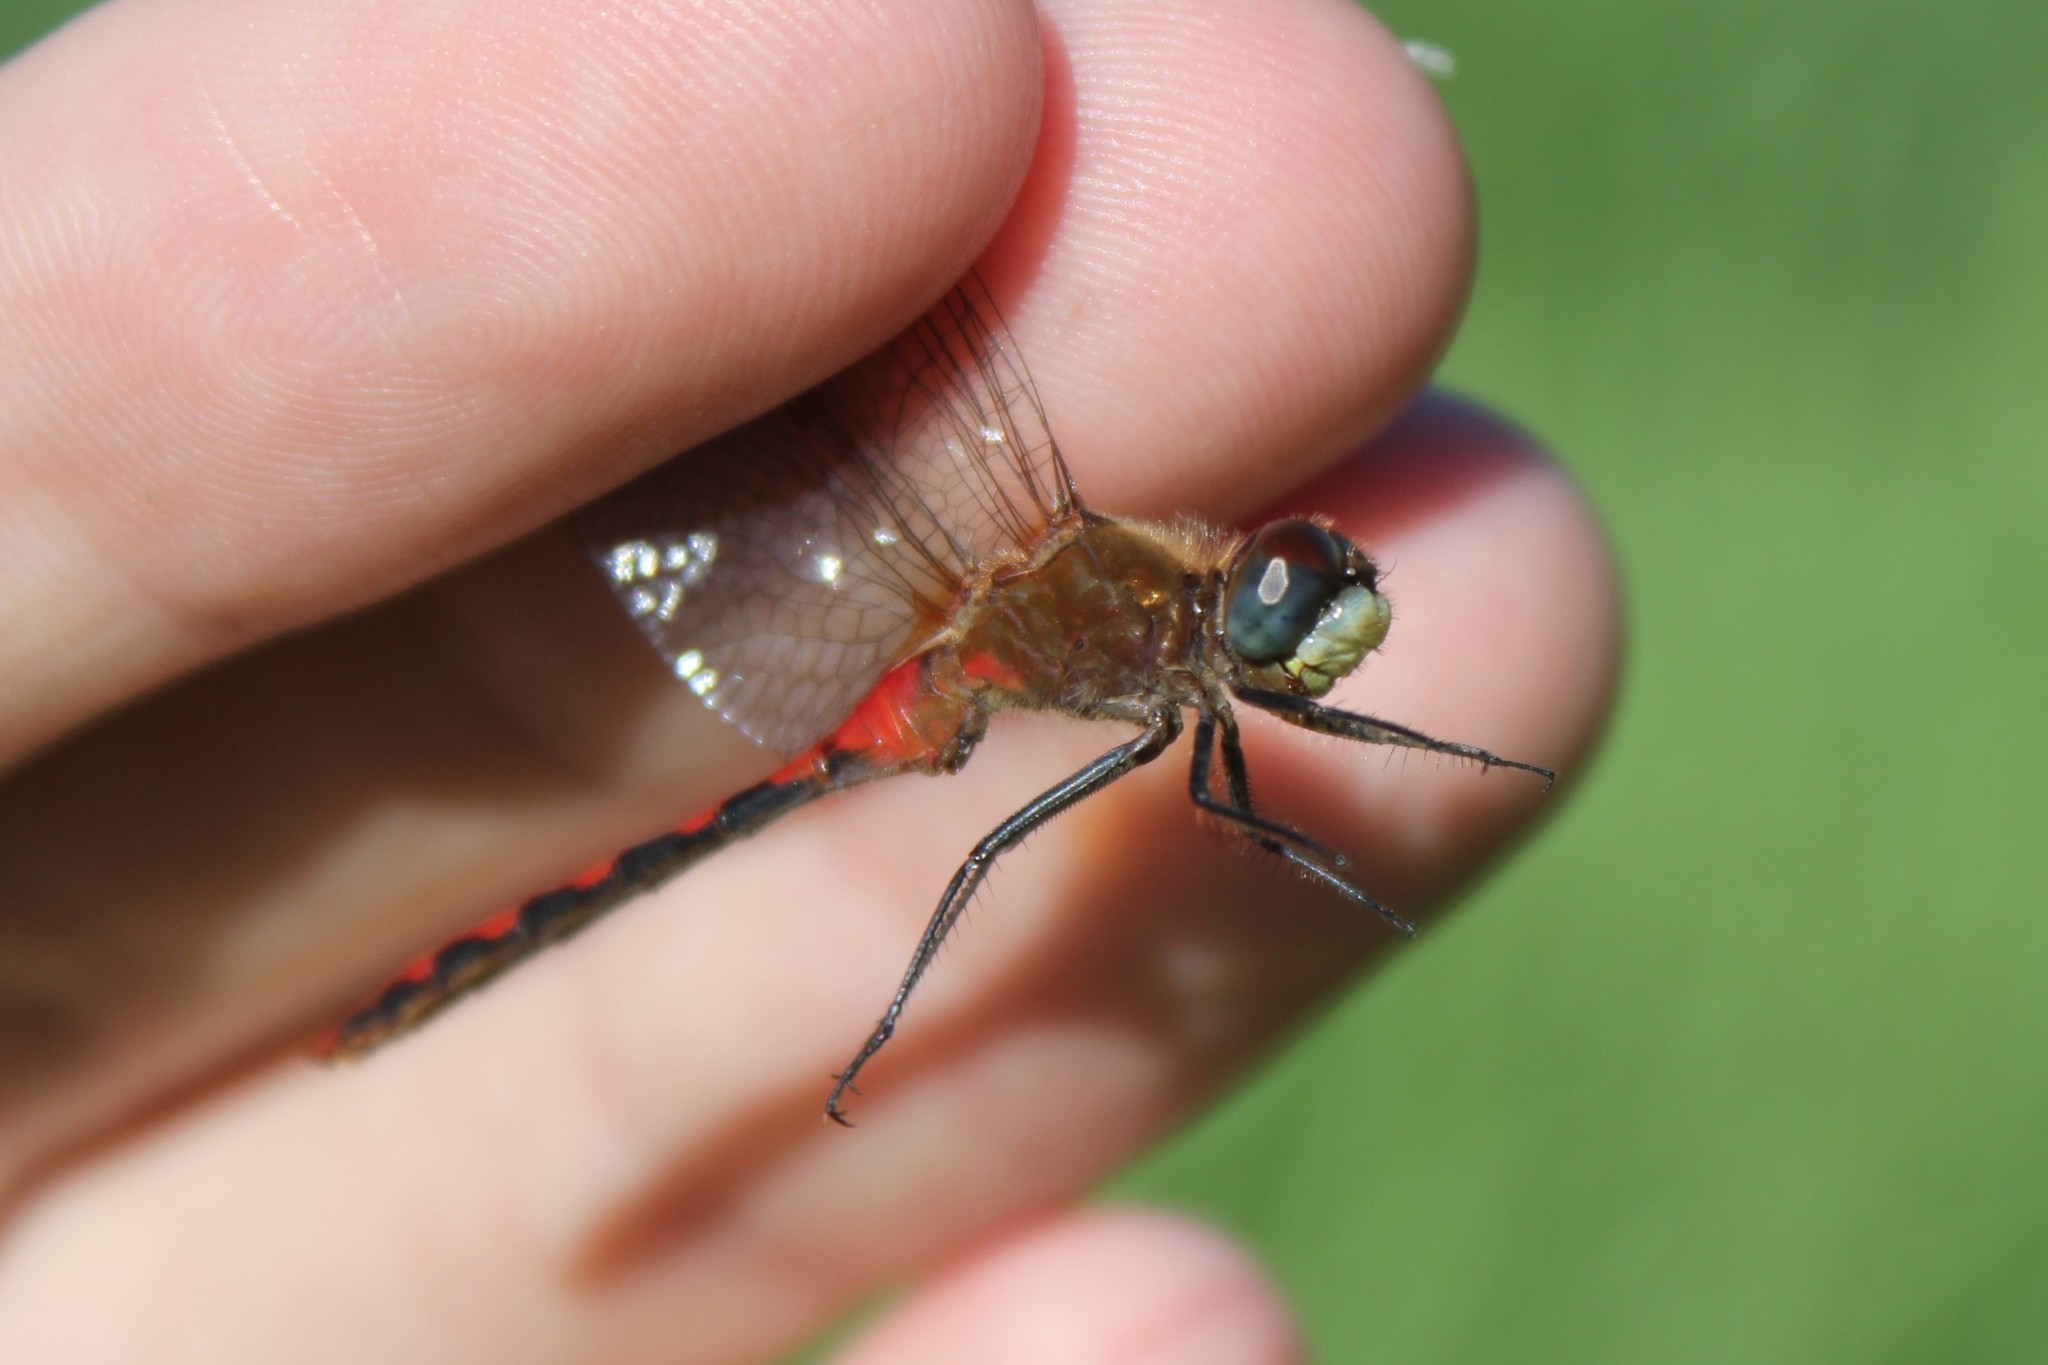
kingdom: Animalia
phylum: Arthropoda
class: Insecta
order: Odonata
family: Libellulidae
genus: Sympetrum
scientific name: Sympetrum obtrusum
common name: White-faced meadowhawk
